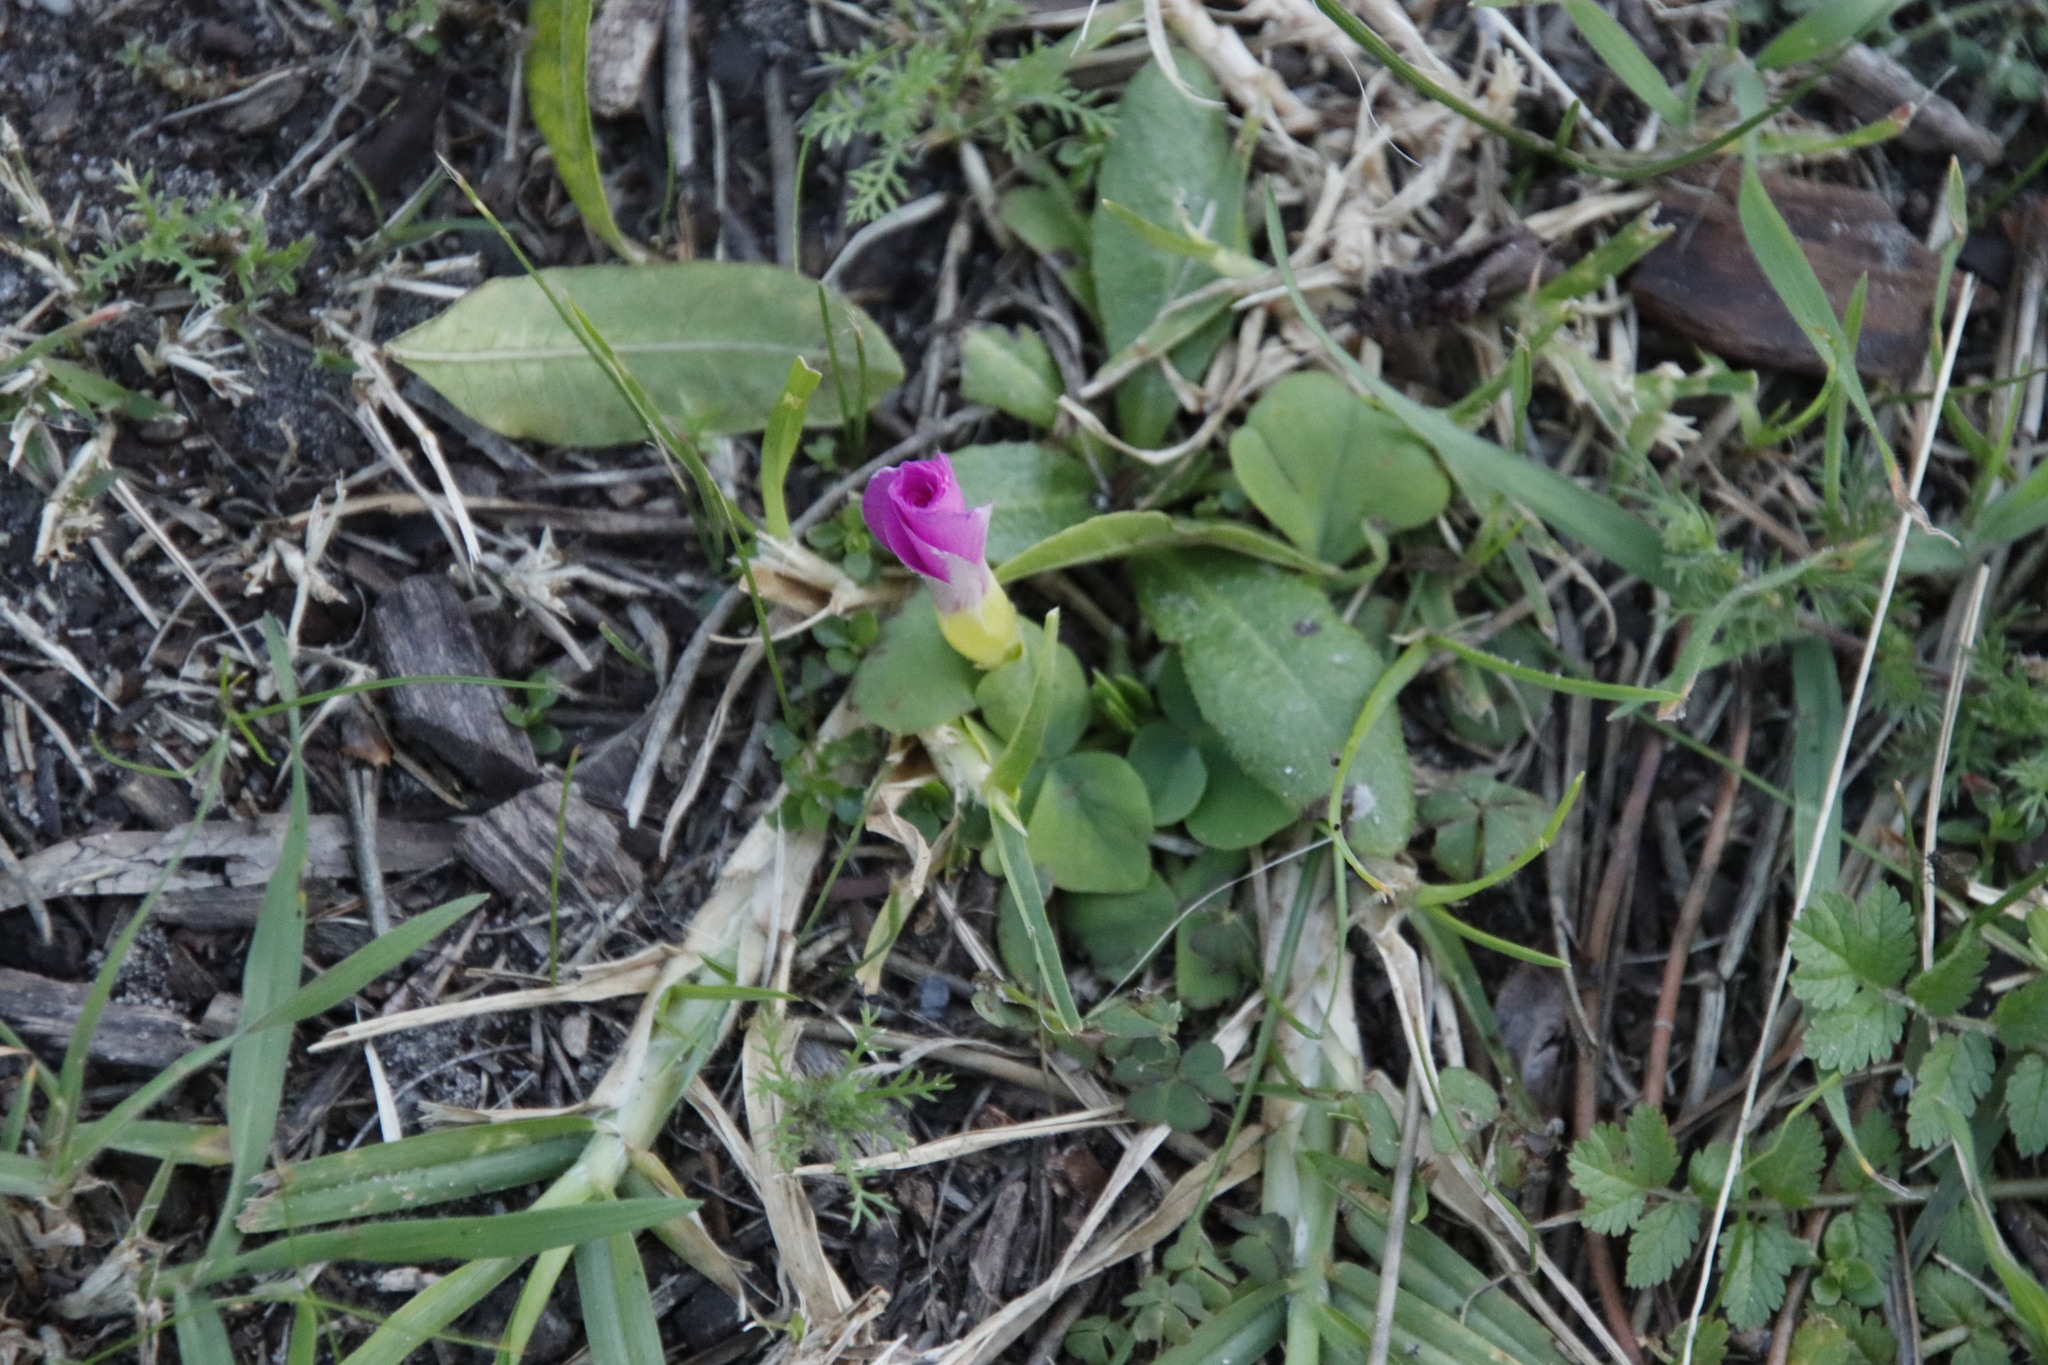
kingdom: Plantae
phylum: Tracheophyta
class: Magnoliopsida
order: Oxalidales
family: Oxalidaceae
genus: Oxalis
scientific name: Oxalis purpurea
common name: Purple woodsorrel
